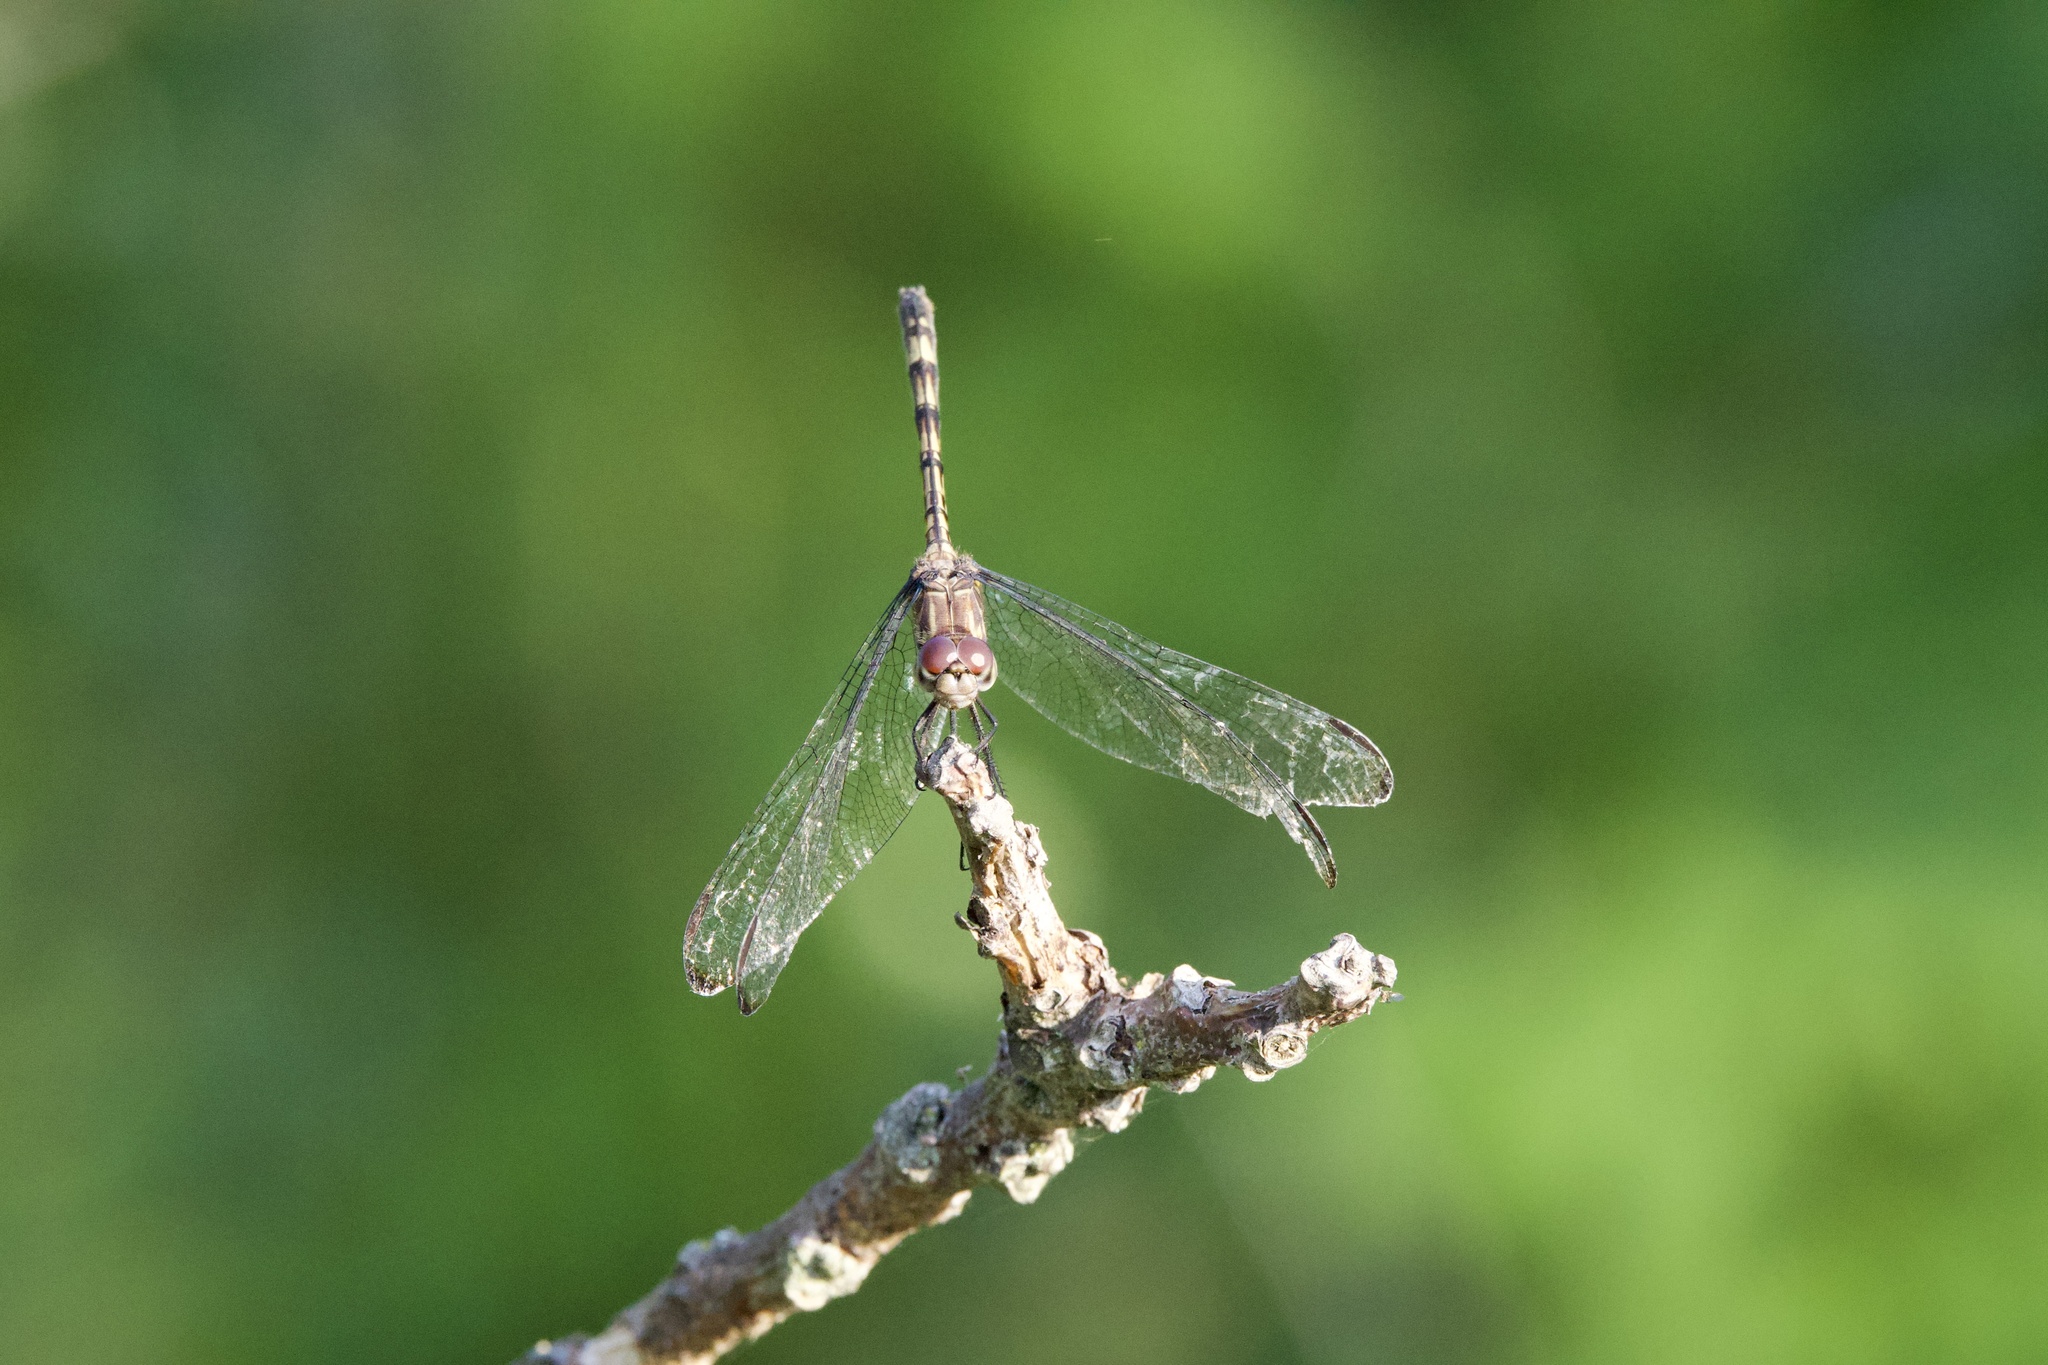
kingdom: Animalia
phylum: Arthropoda
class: Insecta
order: Odonata
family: Libellulidae
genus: Dythemis
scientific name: Dythemis nigrescens
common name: Black setwing
